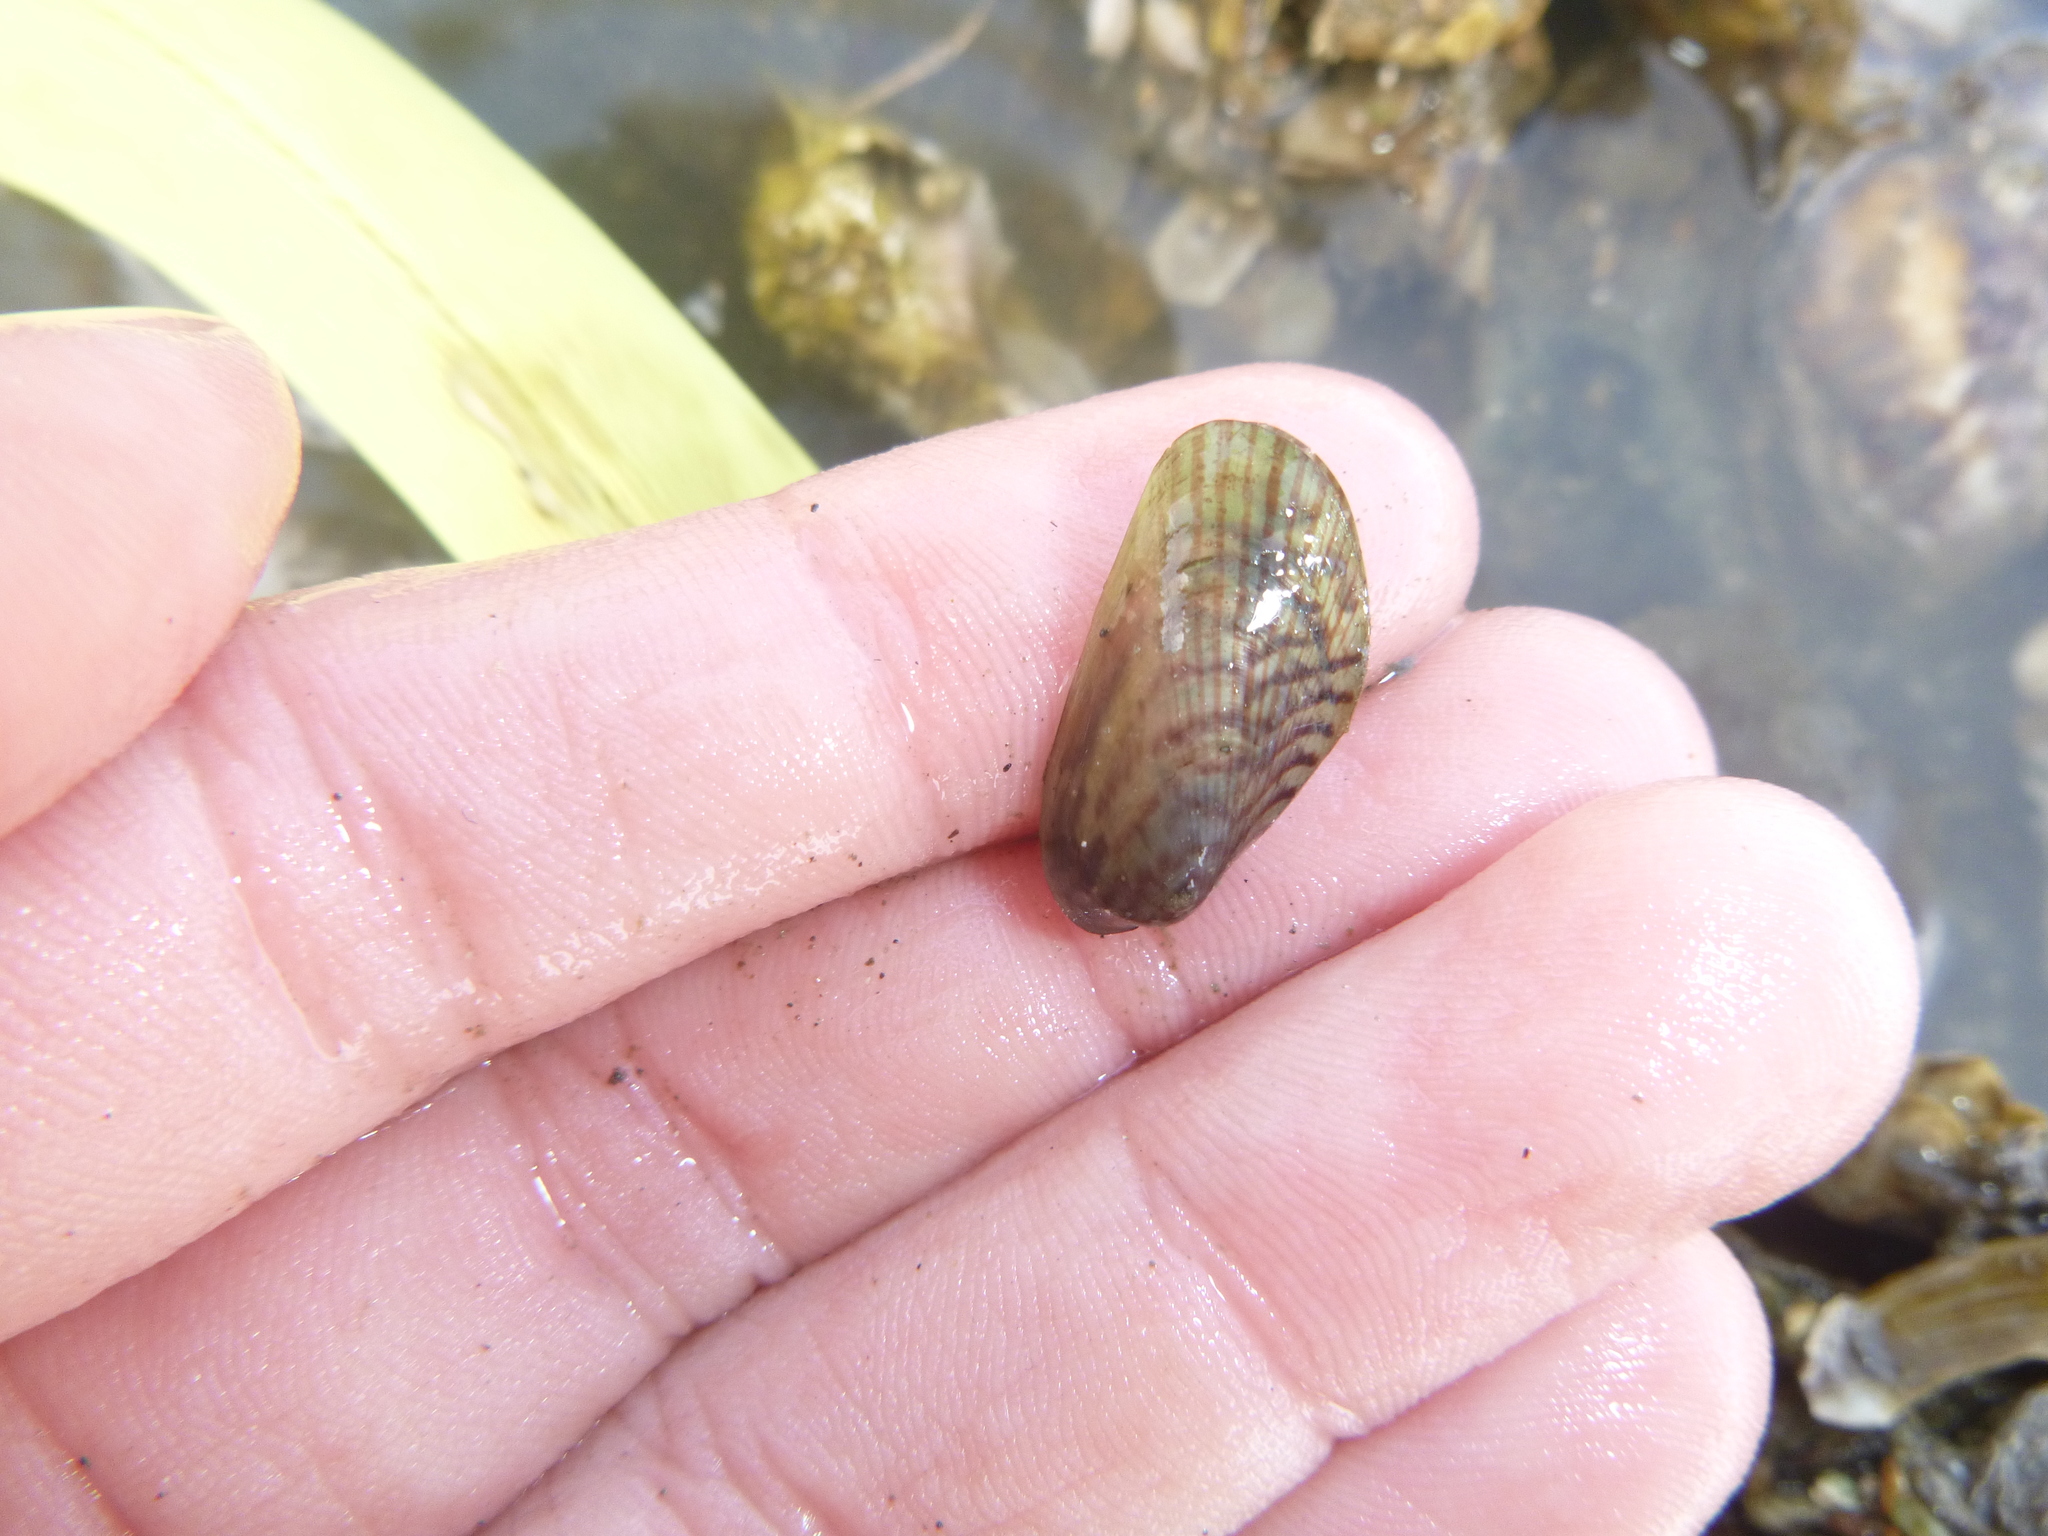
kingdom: Animalia
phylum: Mollusca
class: Bivalvia
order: Mytilida
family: Mytilidae
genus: Arcuatula
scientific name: Arcuatula senhousia
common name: Asian mussel
